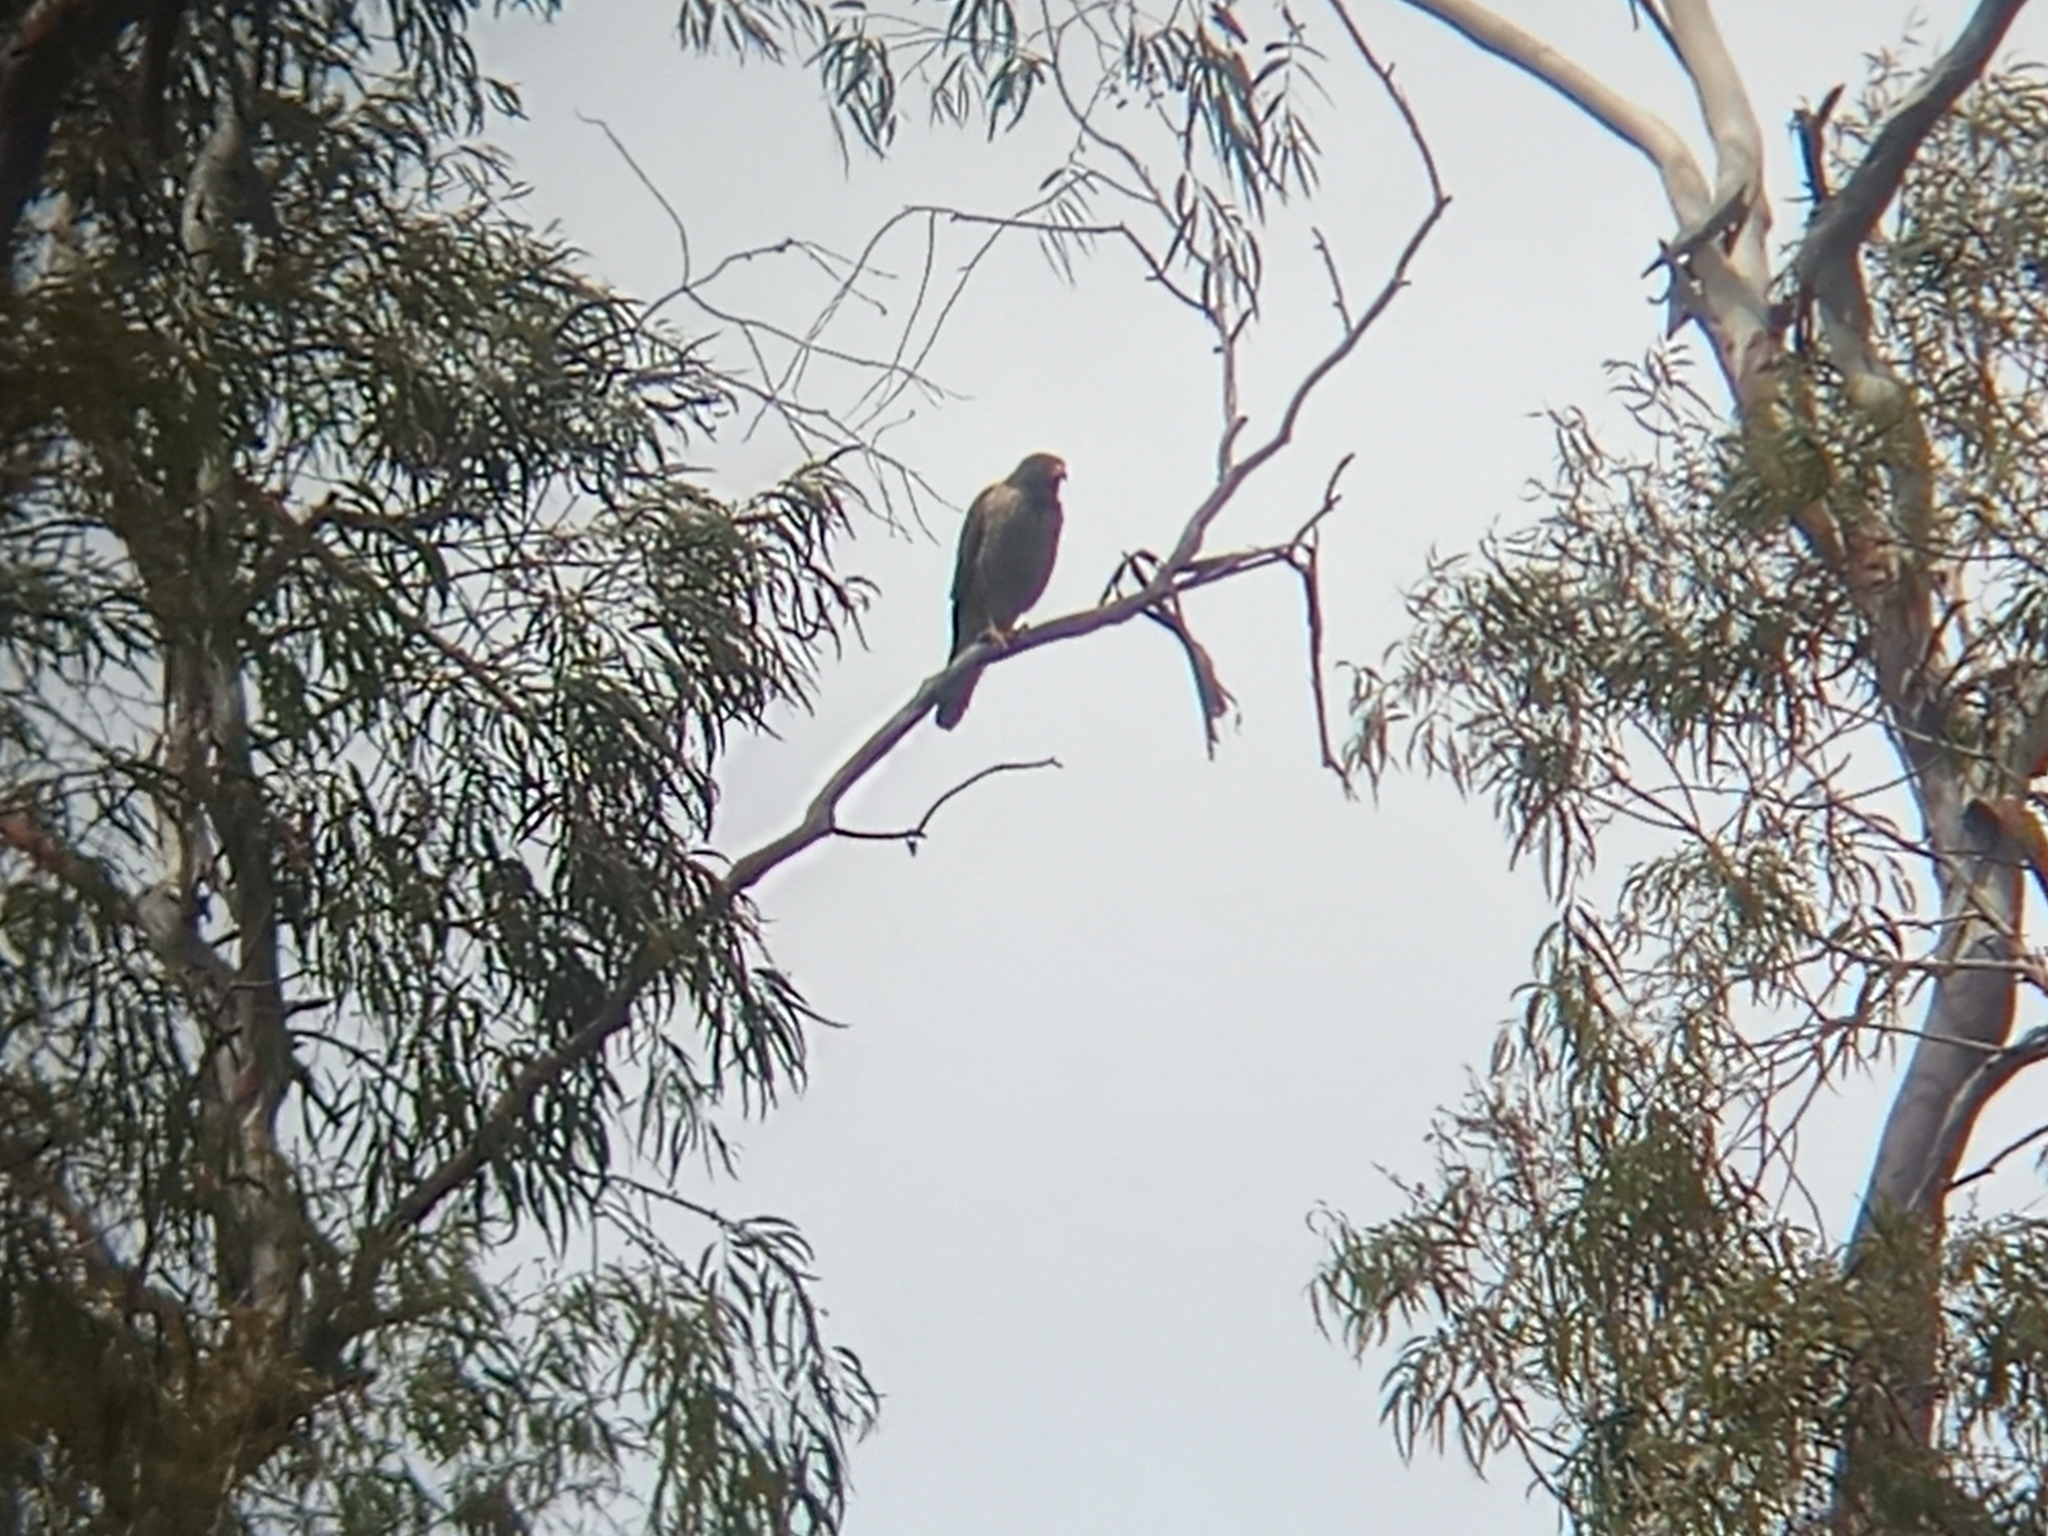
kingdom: Animalia
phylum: Chordata
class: Aves
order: Accipitriformes
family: Accipitridae
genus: Rupornis
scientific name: Rupornis magnirostris
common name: Roadside hawk
